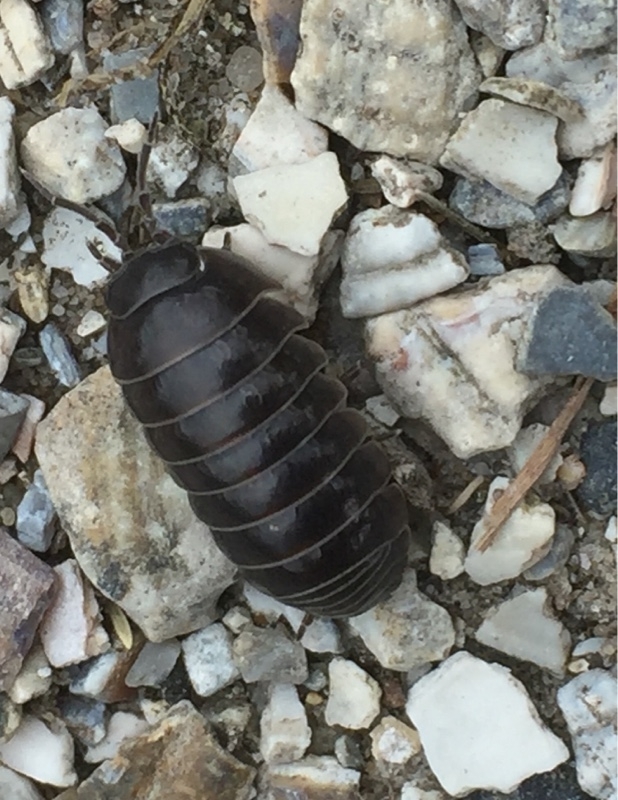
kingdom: Animalia
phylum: Arthropoda
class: Malacostraca
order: Isopoda
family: Armadillidiidae
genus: Armadillidium
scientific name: Armadillidium vulgare
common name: Common pill woodlouse
